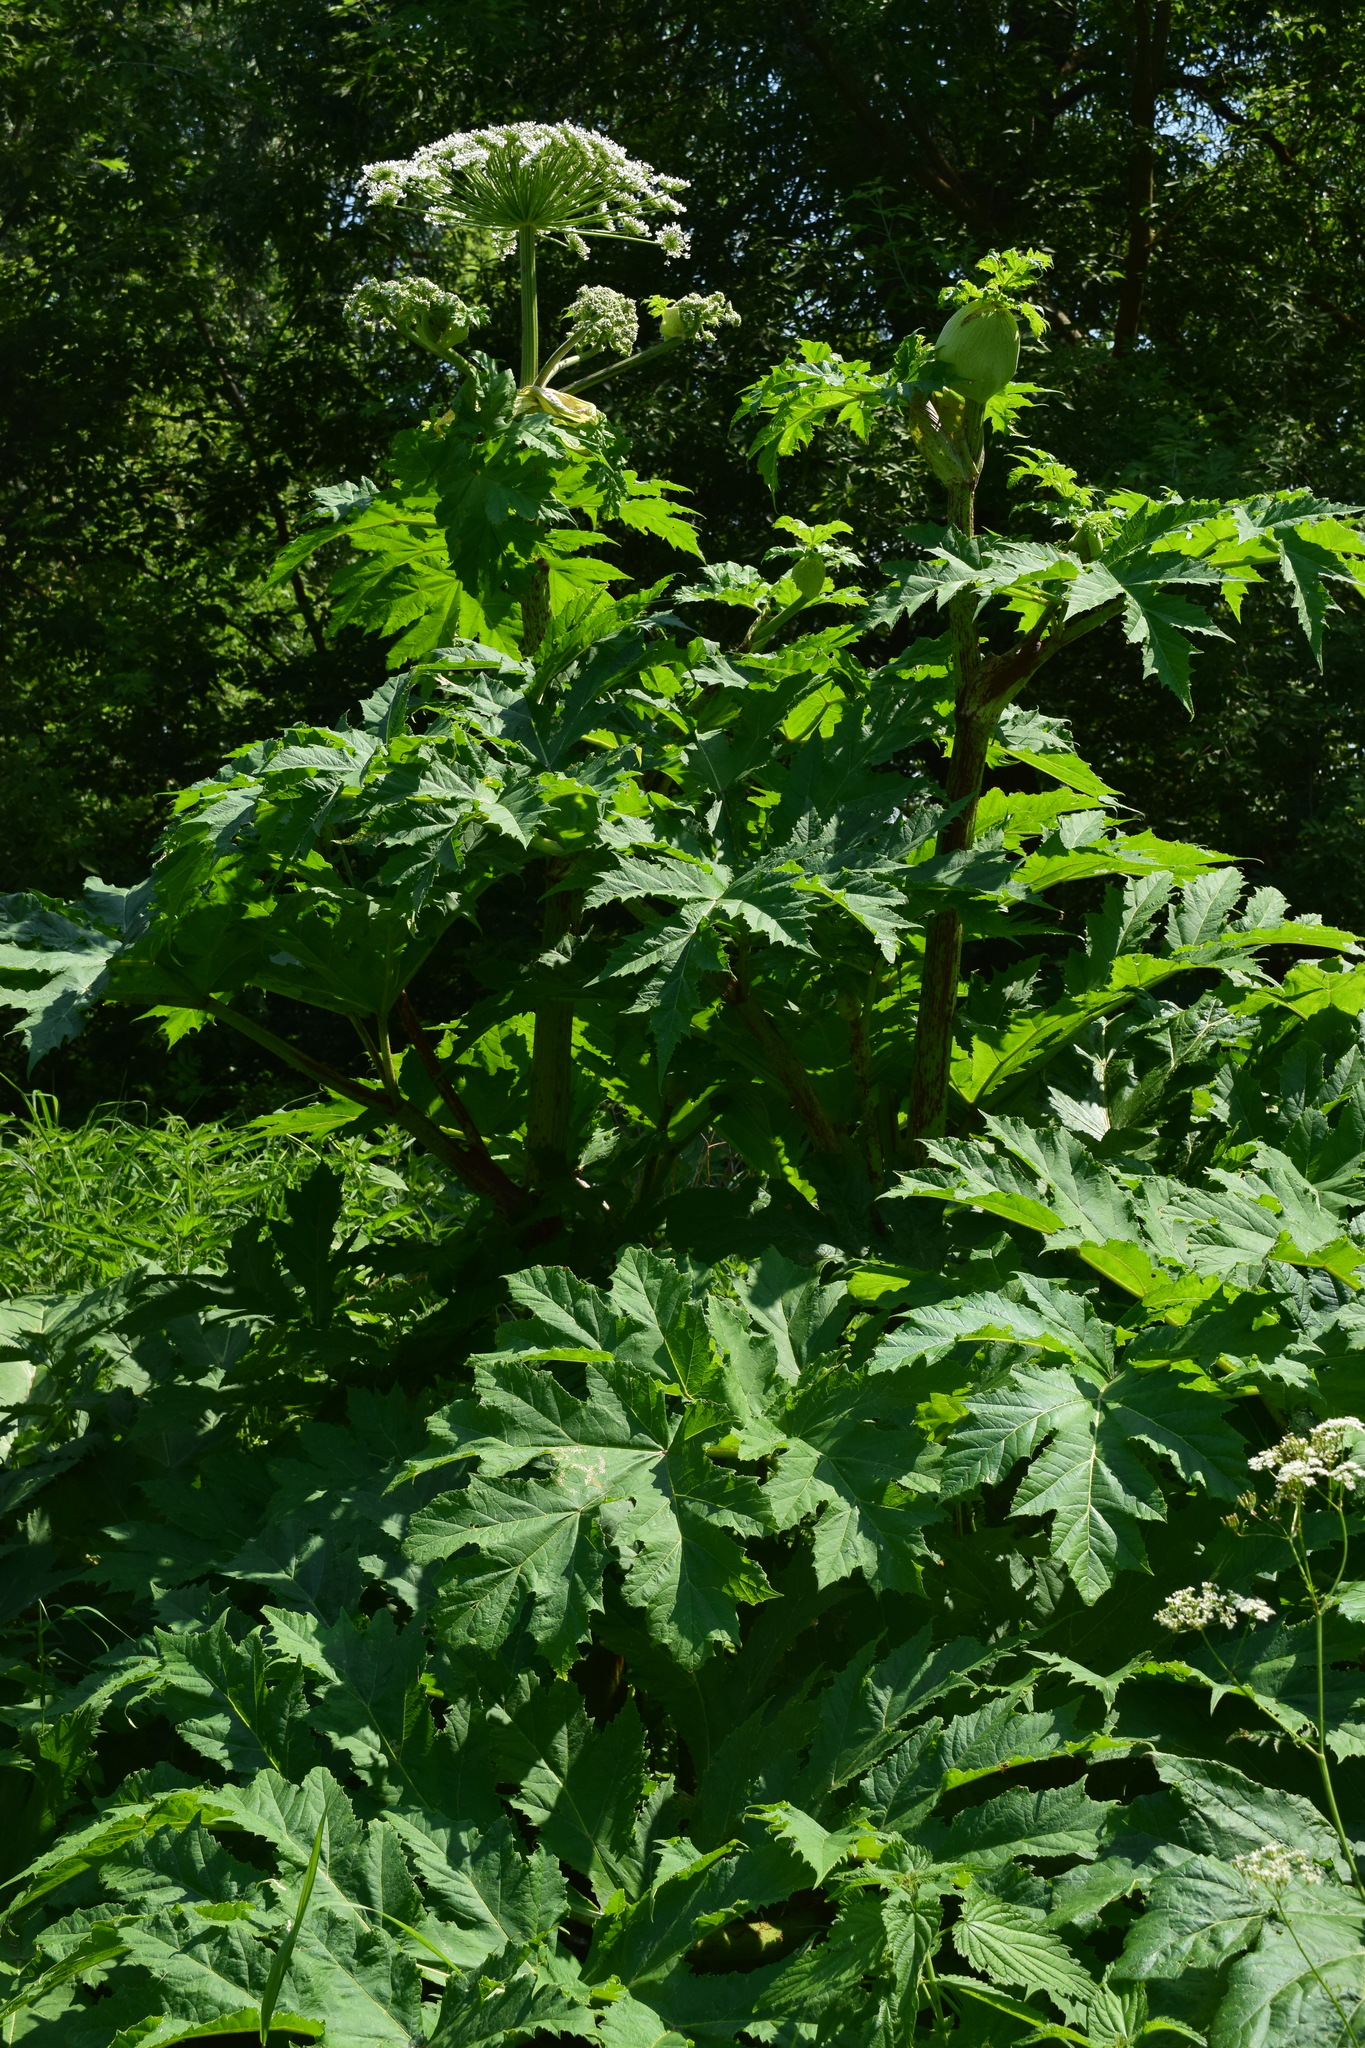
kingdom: Plantae
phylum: Tracheophyta
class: Magnoliopsida
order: Apiales
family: Apiaceae
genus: Heracleum
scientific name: Heracleum sosnowskyi
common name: Sosnowsky's hogweed
